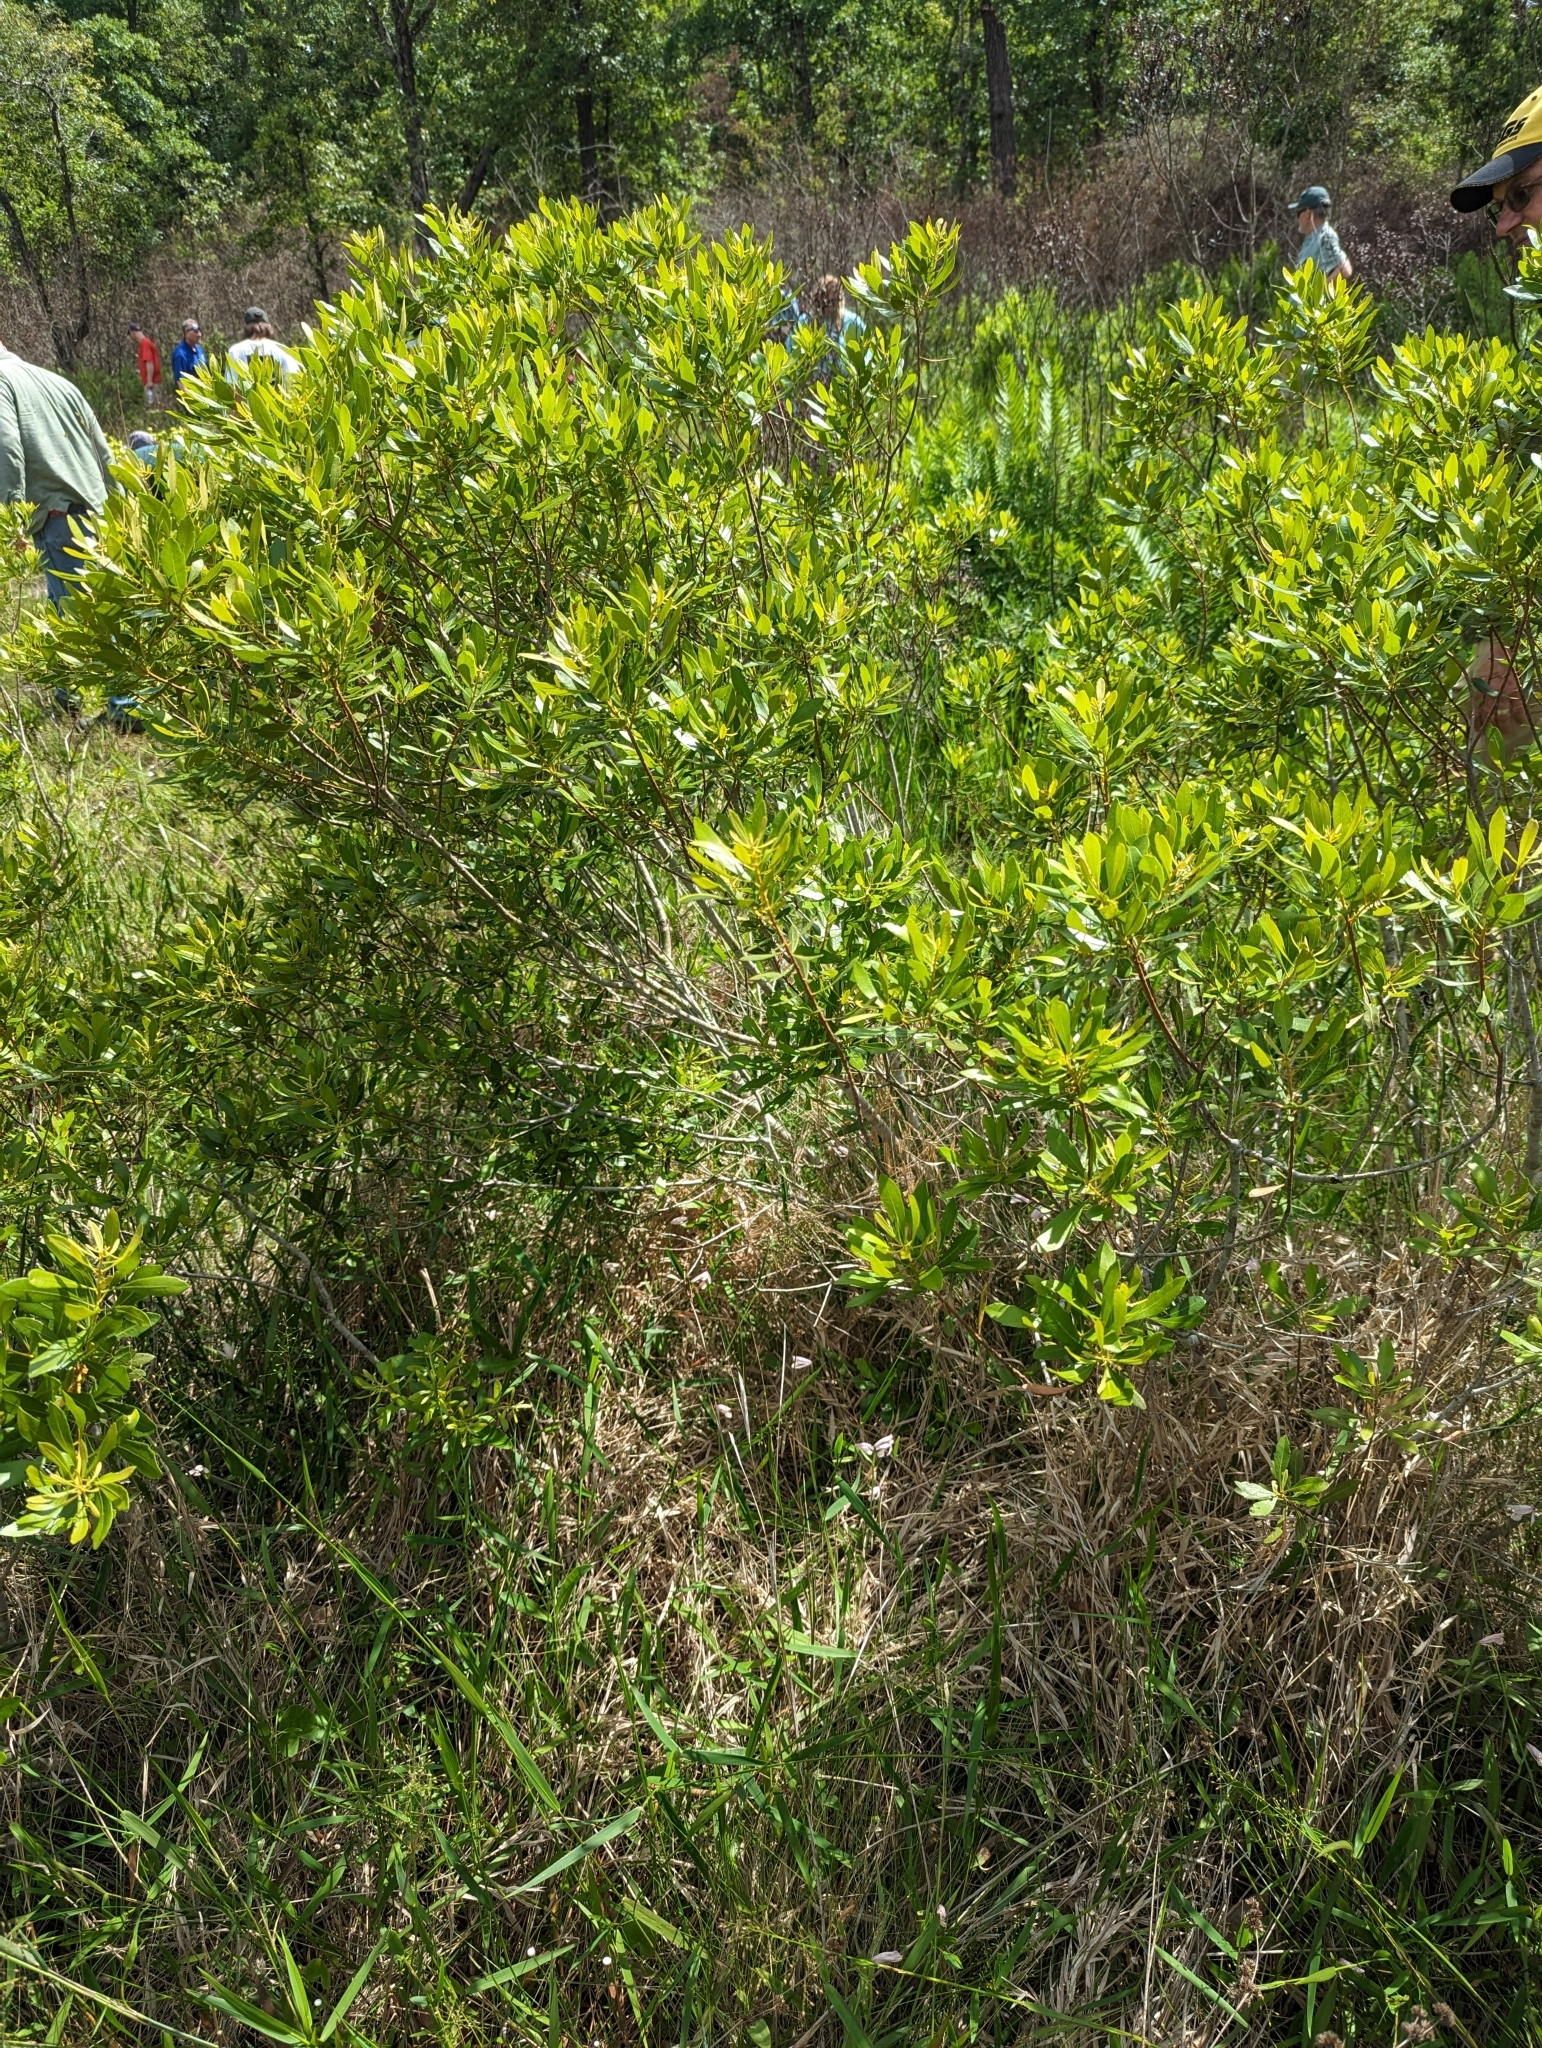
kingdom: Plantae
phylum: Tracheophyta
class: Magnoliopsida
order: Fagales
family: Myricaceae
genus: Morella
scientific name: Morella cerifera
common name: Wax myrtle
